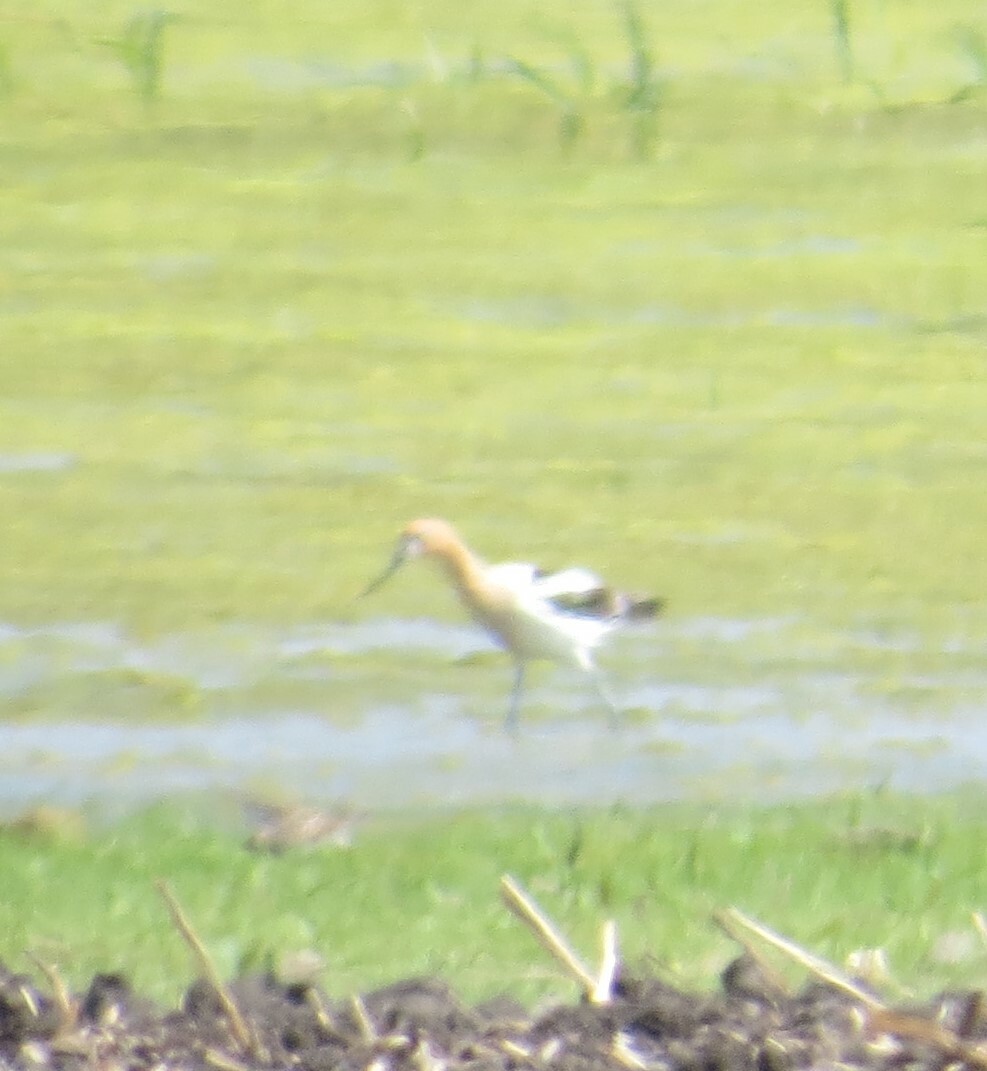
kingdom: Animalia
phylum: Chordata
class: Aves
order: Charadriiformes
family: Recurvirostridae
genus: Recurvirostra
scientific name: Recurvirostra americana
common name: American avocet
